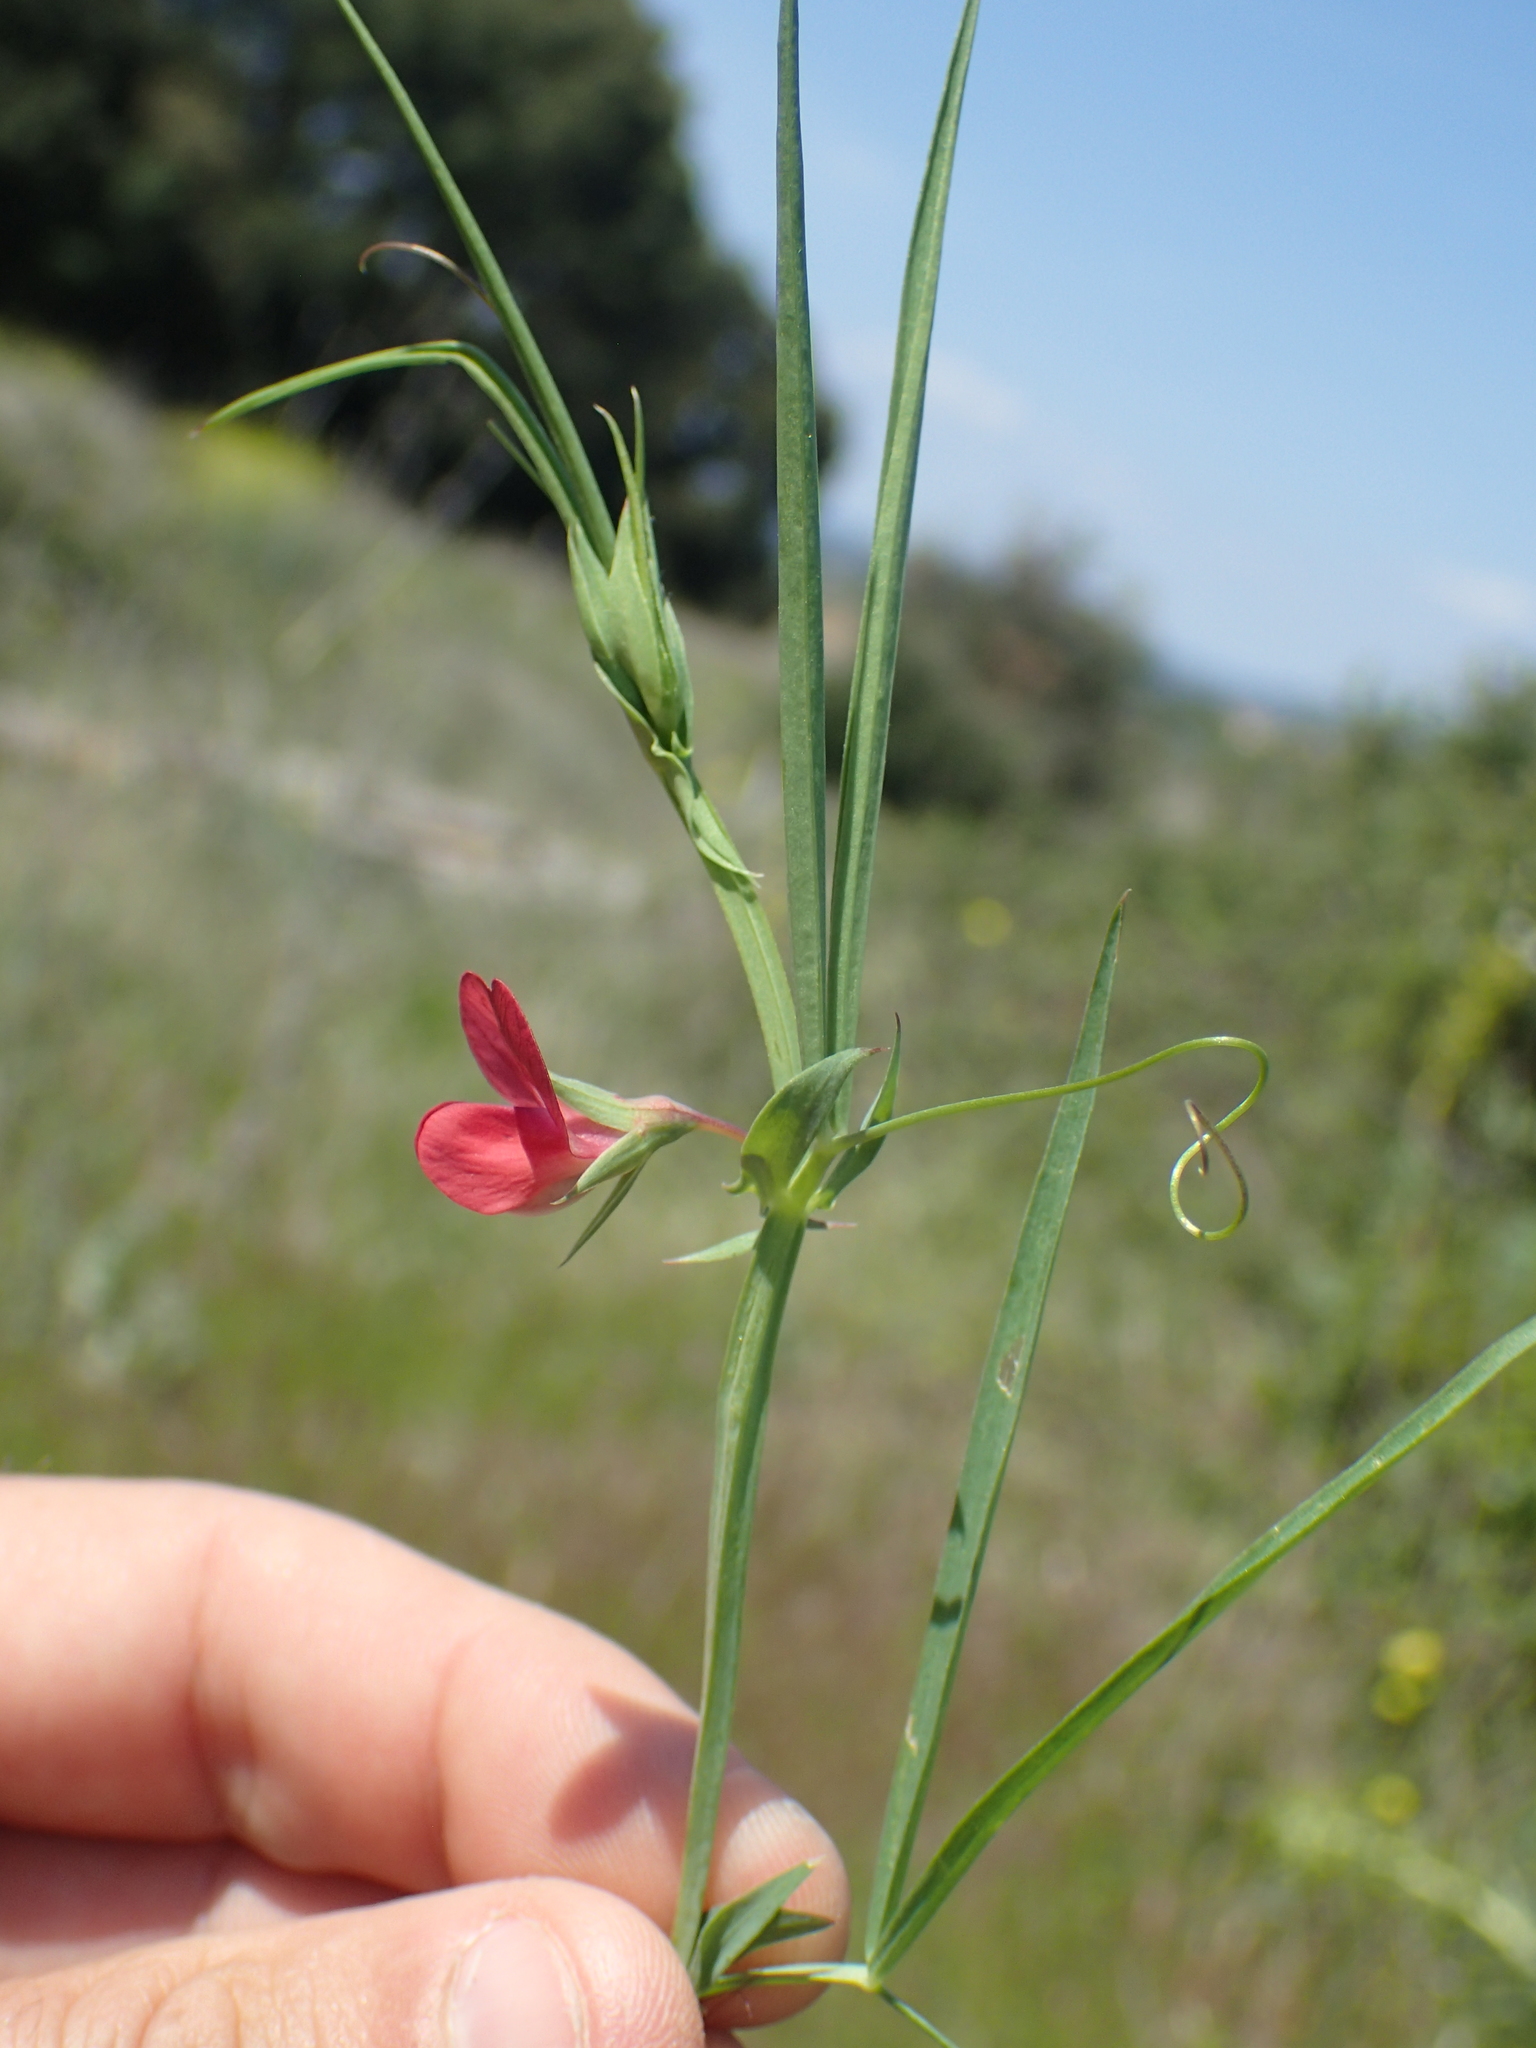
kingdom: Plantae
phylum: Tracheophyta
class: Magnoliopsida
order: Fabales
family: Fabaceae
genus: Lathyrus
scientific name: Lathyrus cicera
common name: Red vetchling
